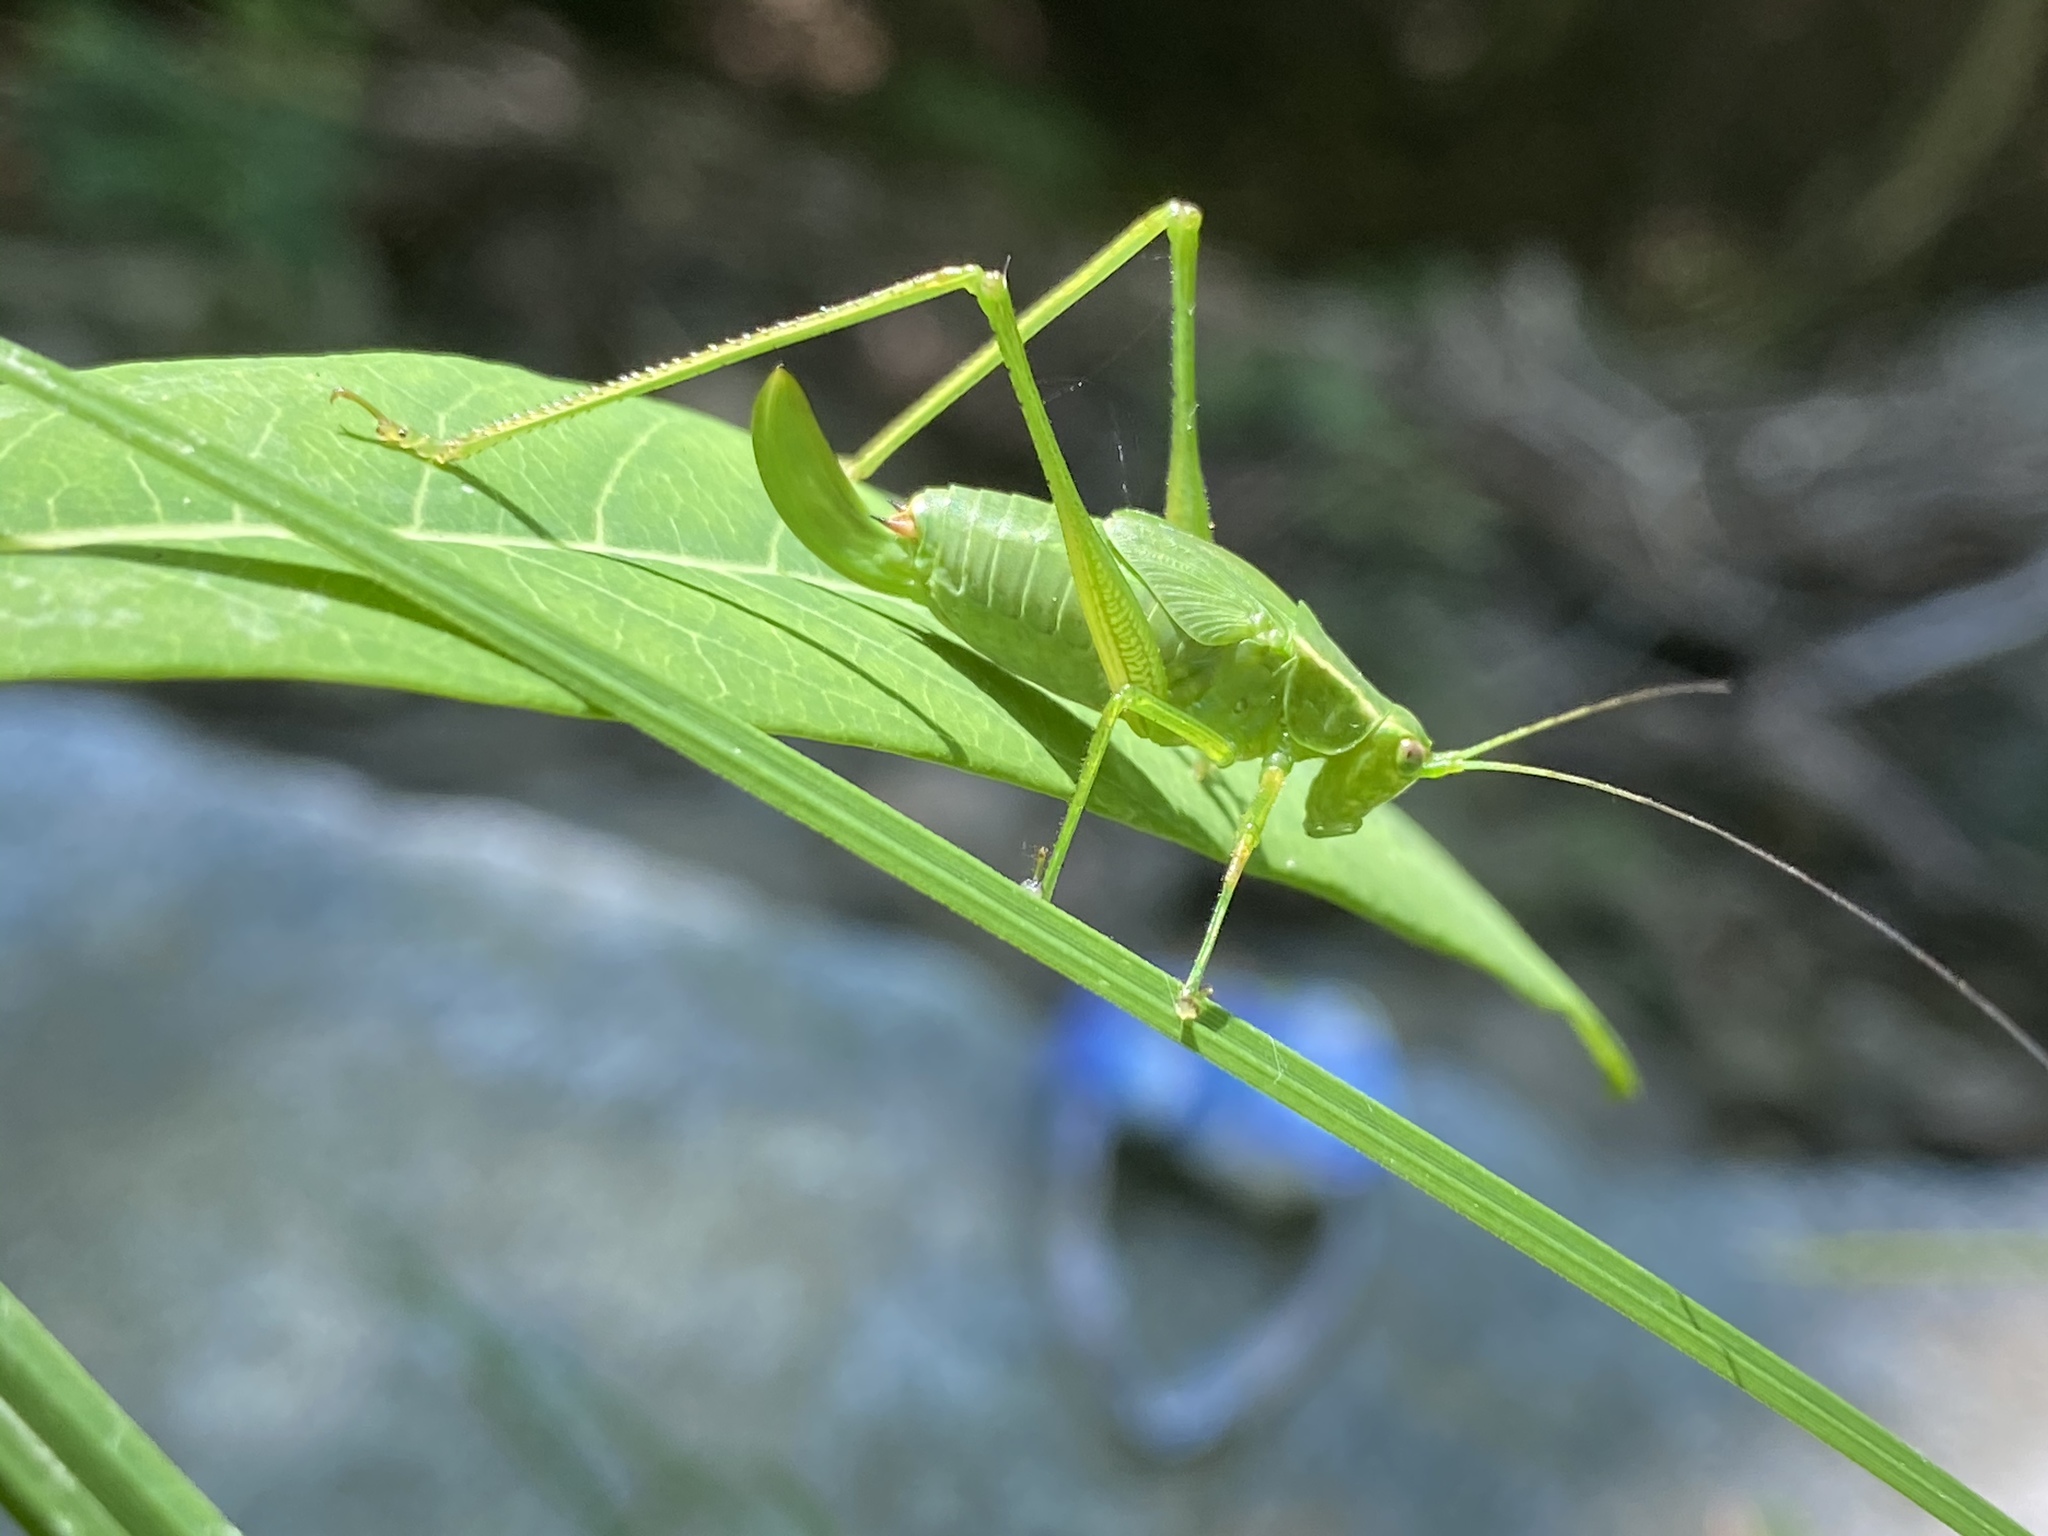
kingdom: Animalia
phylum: Arthropoda
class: Insecta
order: Orthoptera
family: Tettigoniidae
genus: Scudderia
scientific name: Scudderia septentrionalis
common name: Northern bush-katydid
